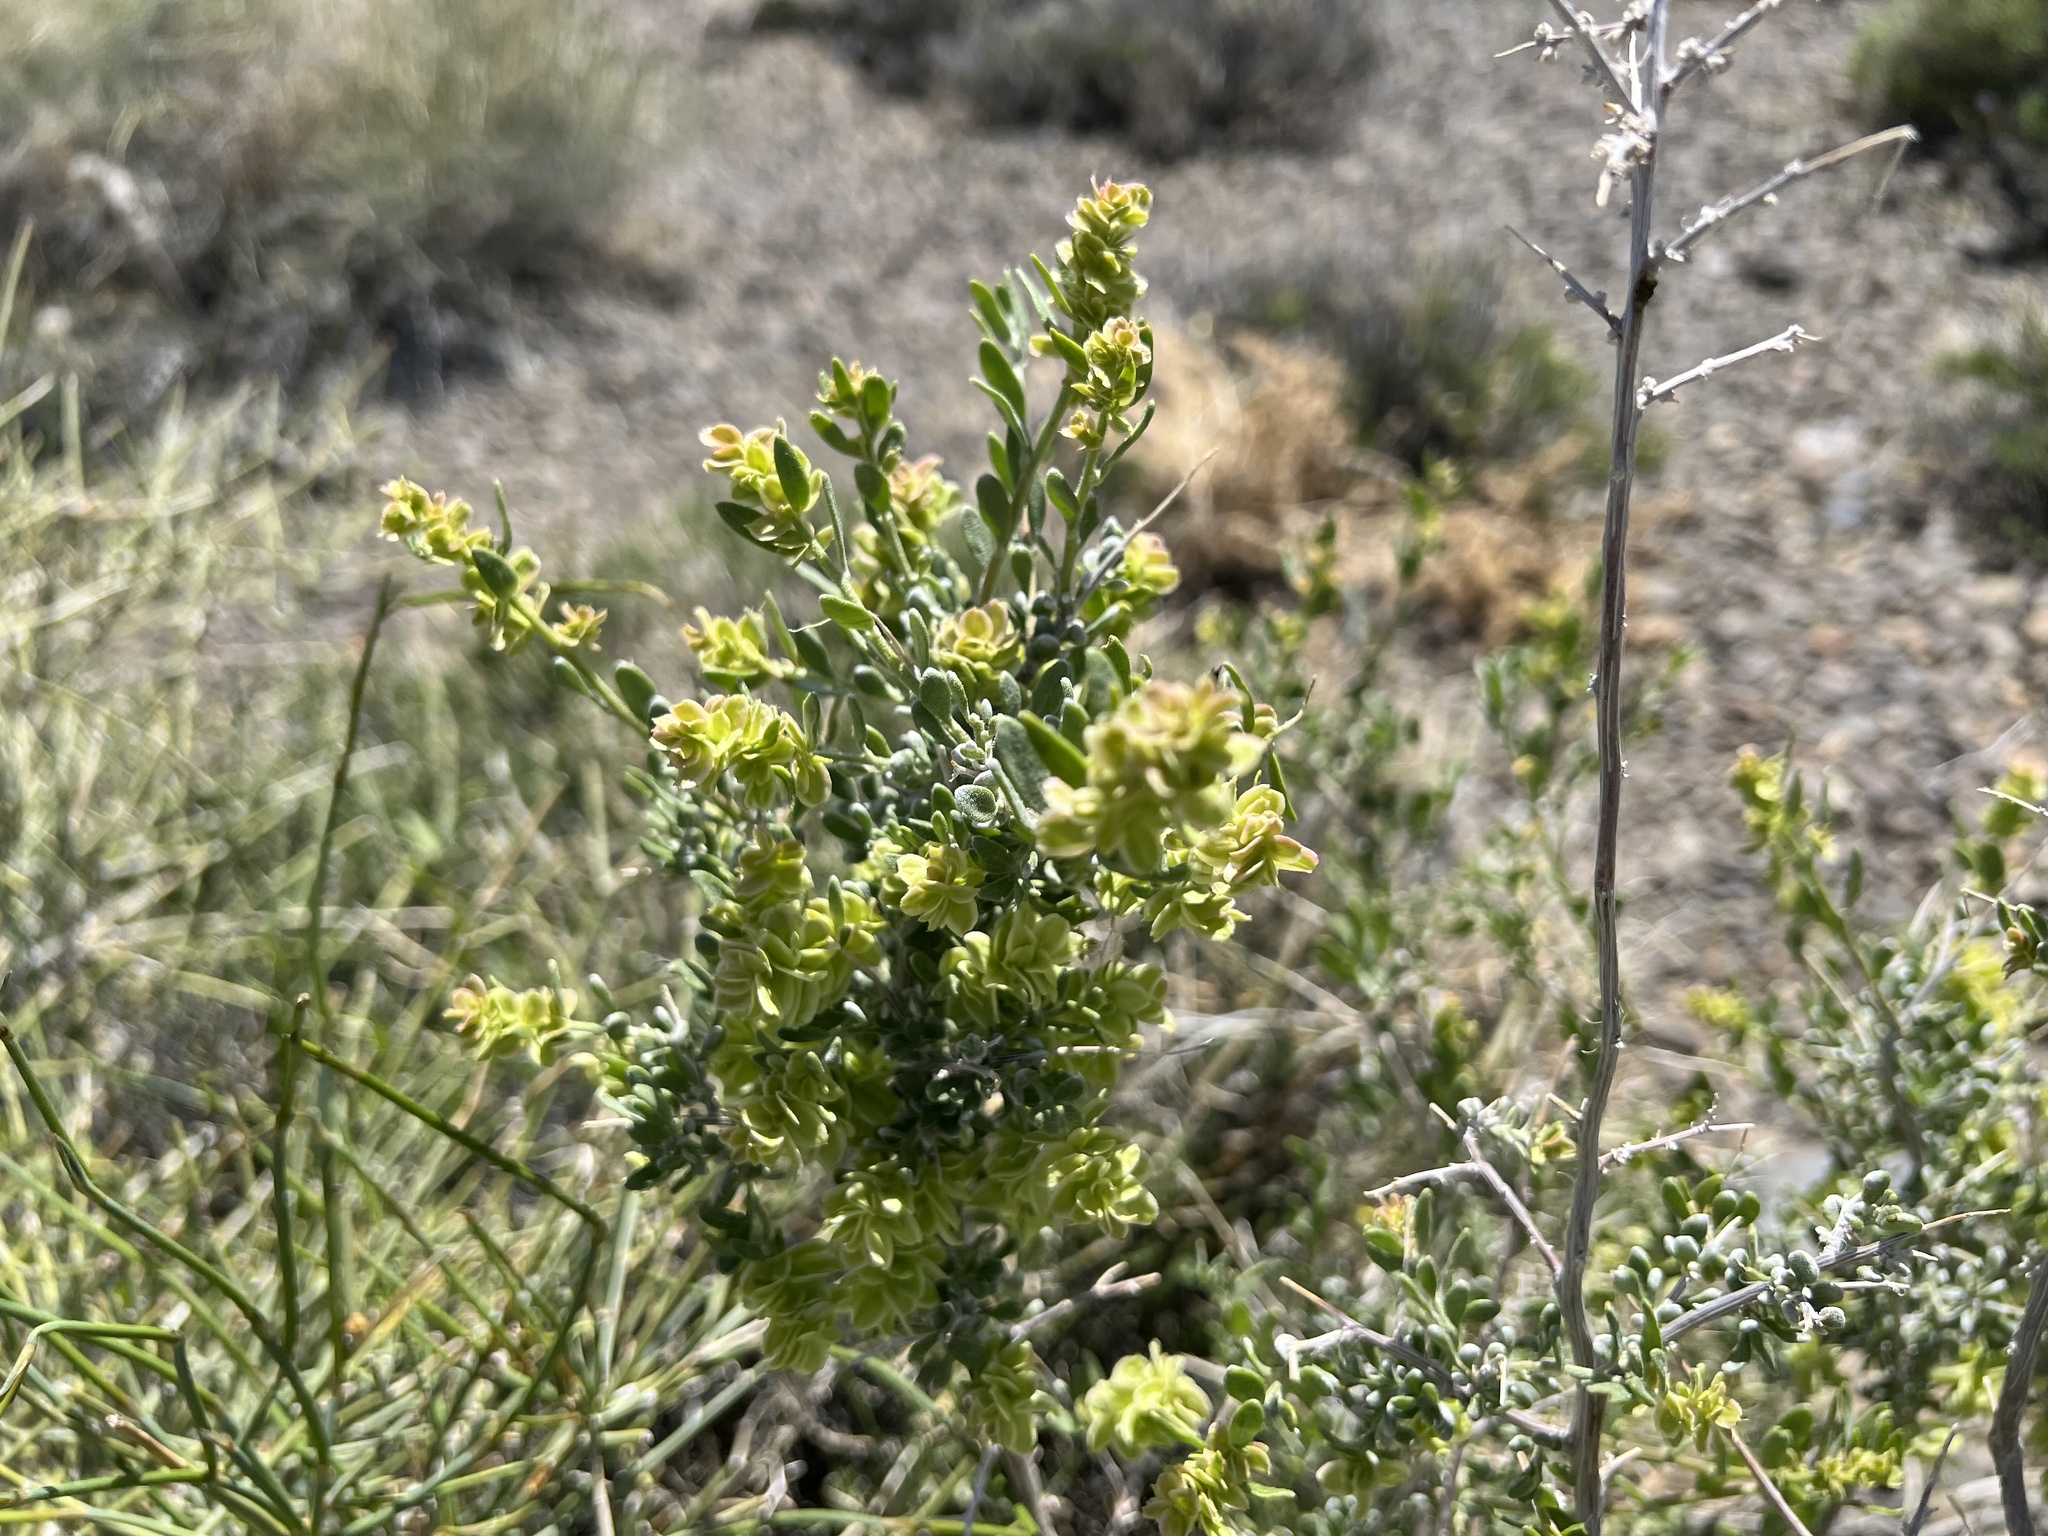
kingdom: Plantae
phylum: Tracheophyta
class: Magnoliopsida
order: Caryophyllales
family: Amaranthaceae
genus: Grayia
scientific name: Grayia spinosa
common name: Spiny hopsage
